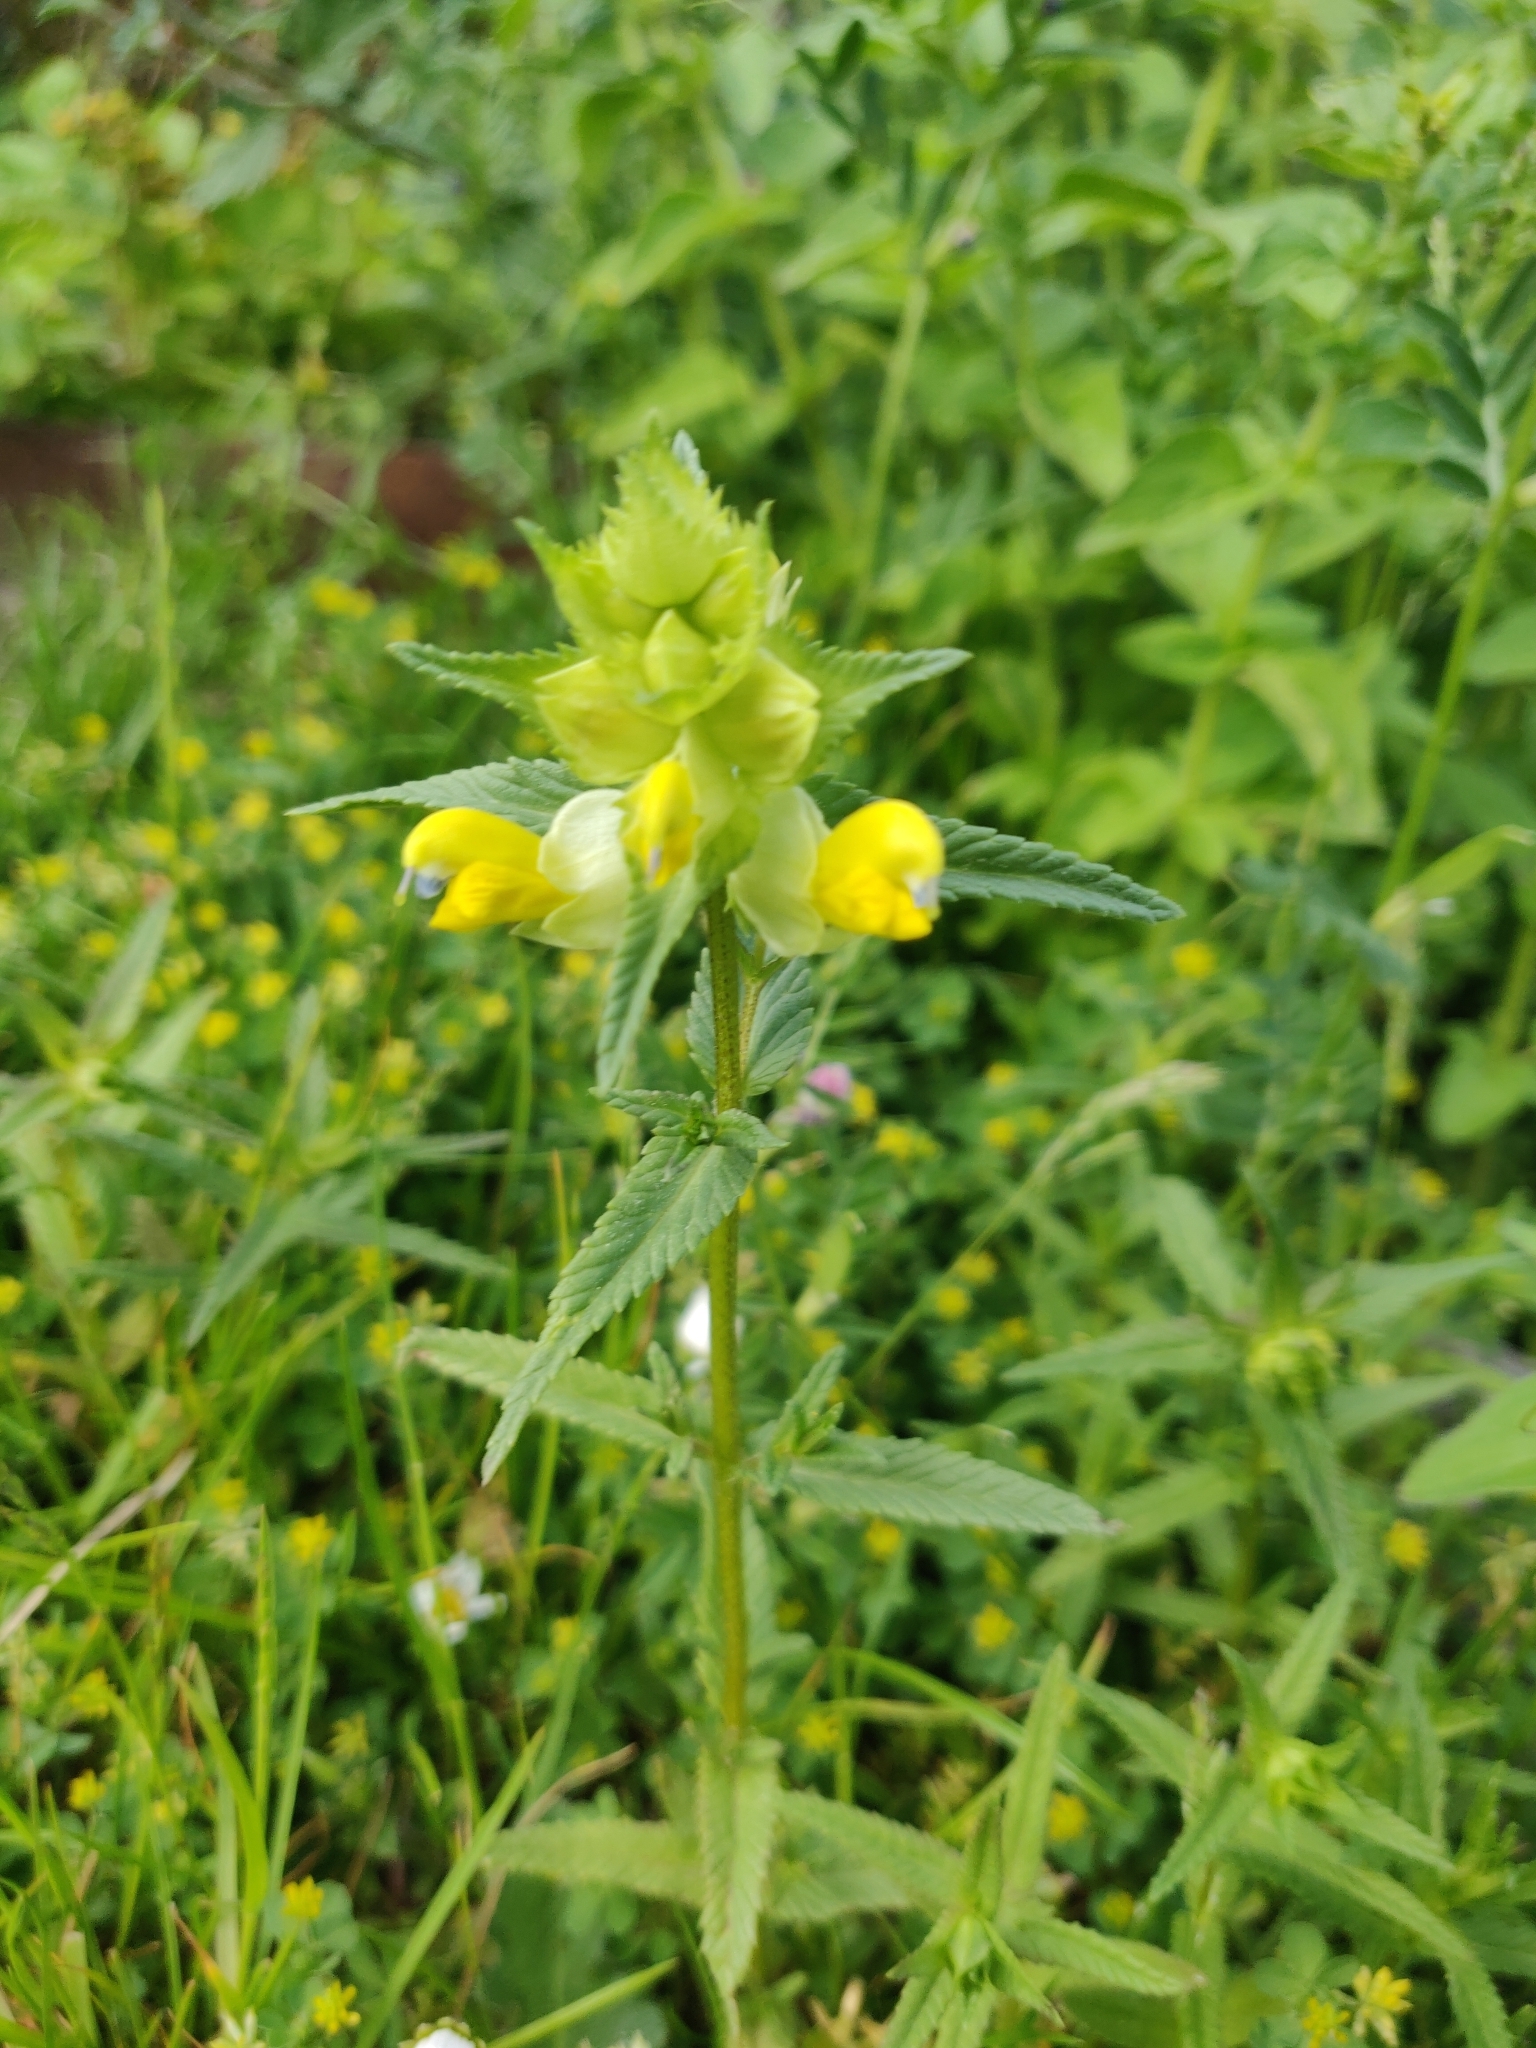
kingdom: Plantae
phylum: Tracheophyta
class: Magnoliopsida
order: Lamiales
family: Orobanchaceae
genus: Rhinanthus
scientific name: Rhinanthus serotinus
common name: Late-flowering yellow rattle
